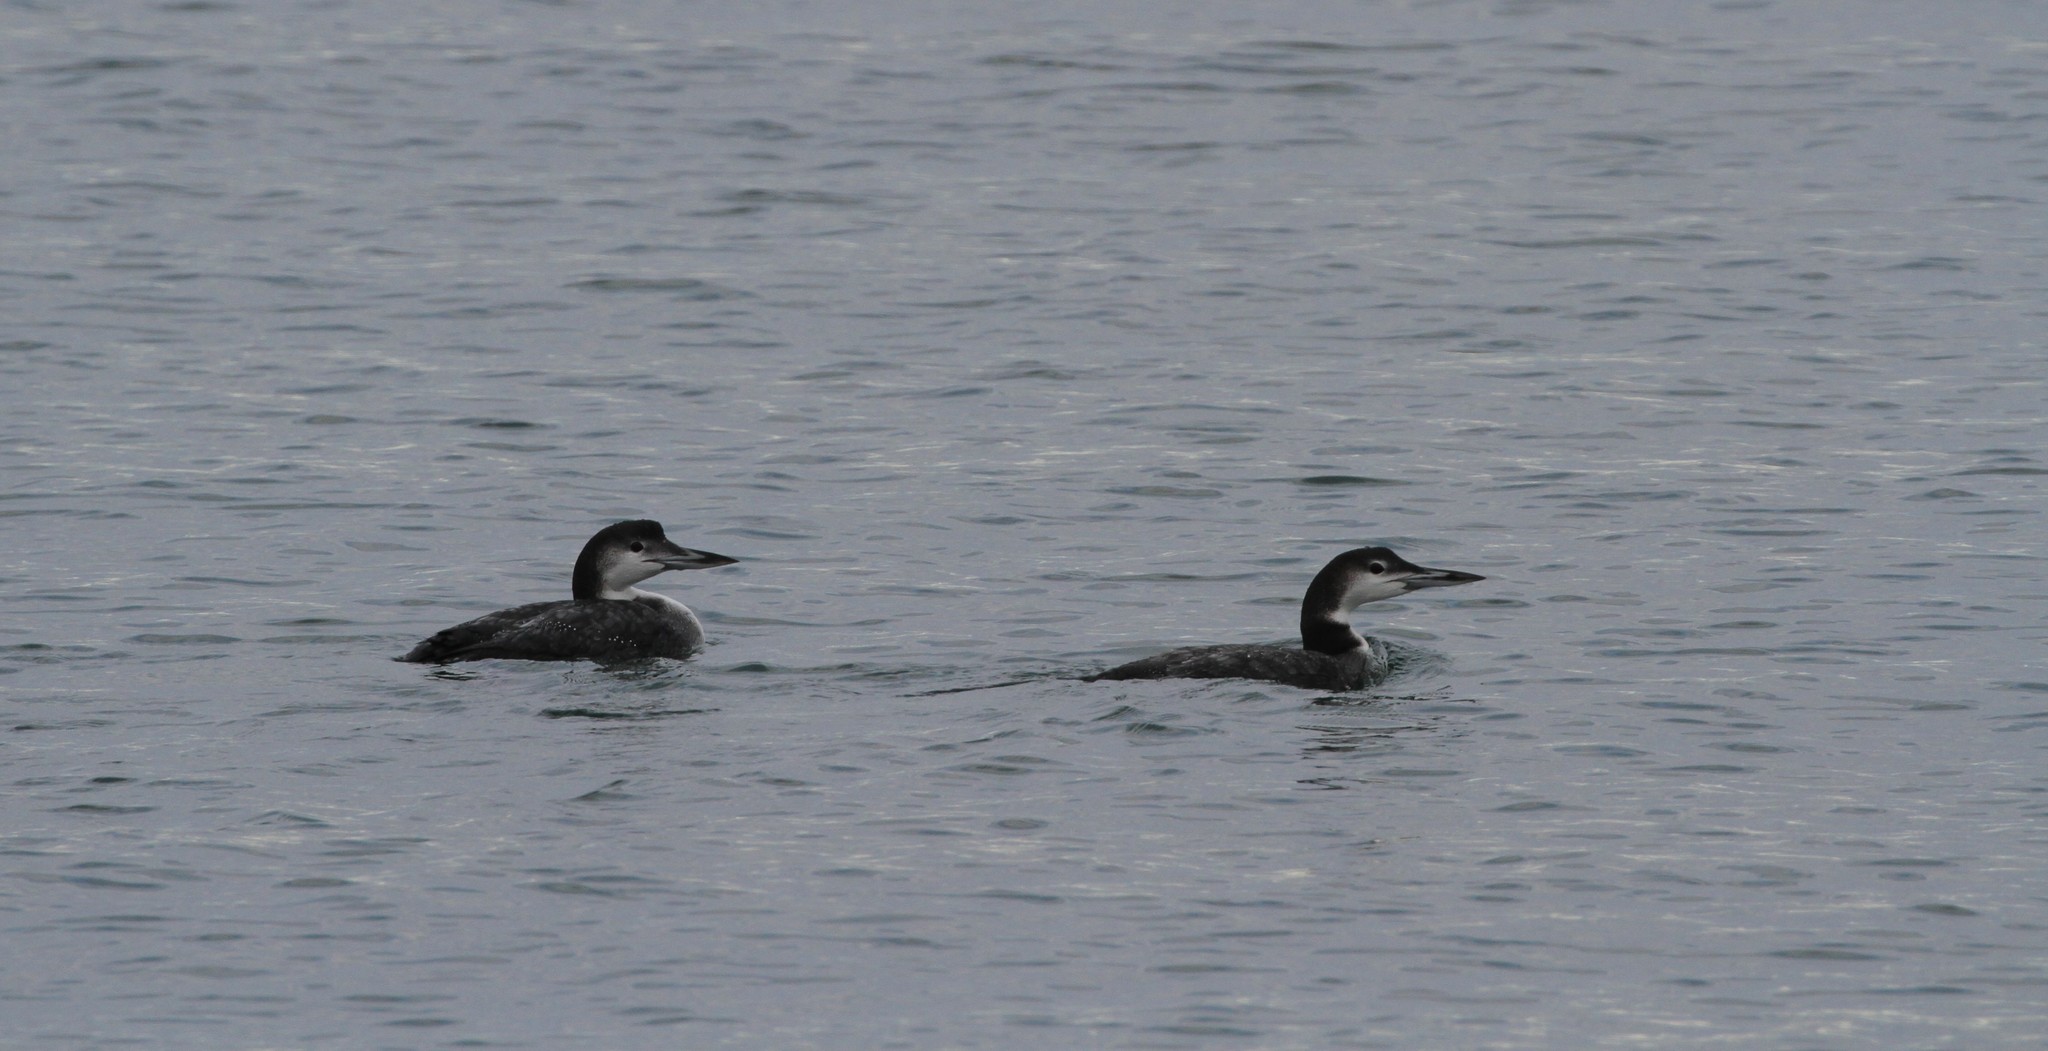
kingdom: Animalia
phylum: Chordata
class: Aves
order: Gaviiformes
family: Gaviidae
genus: Gavia
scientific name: Gavia immer
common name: Common loon
